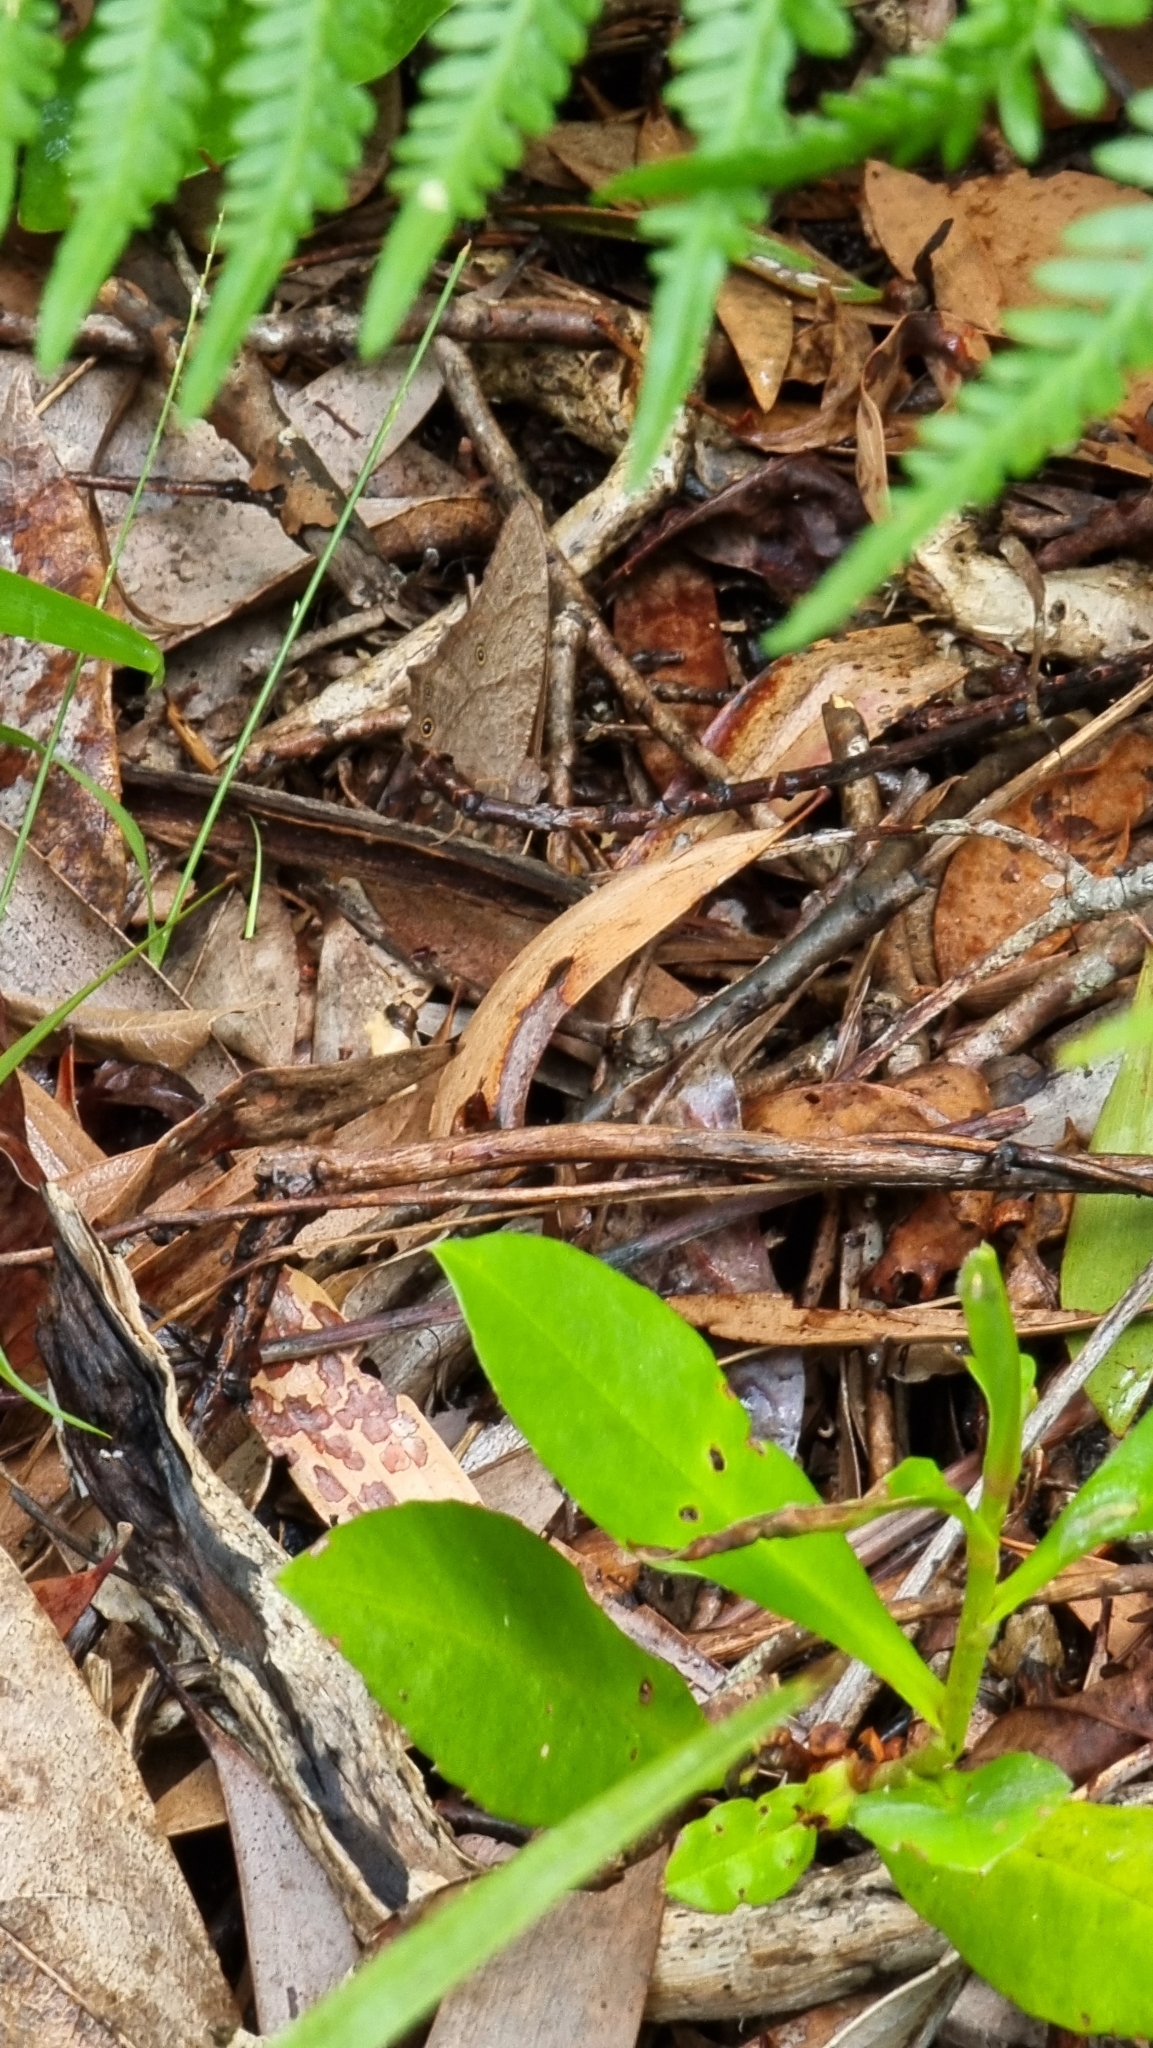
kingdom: Animalia
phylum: Arthropoda
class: Insecta
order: Lepidoptera
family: Nymphalidae
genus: Melanitis
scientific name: Melanitis leda
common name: Twilight brown
